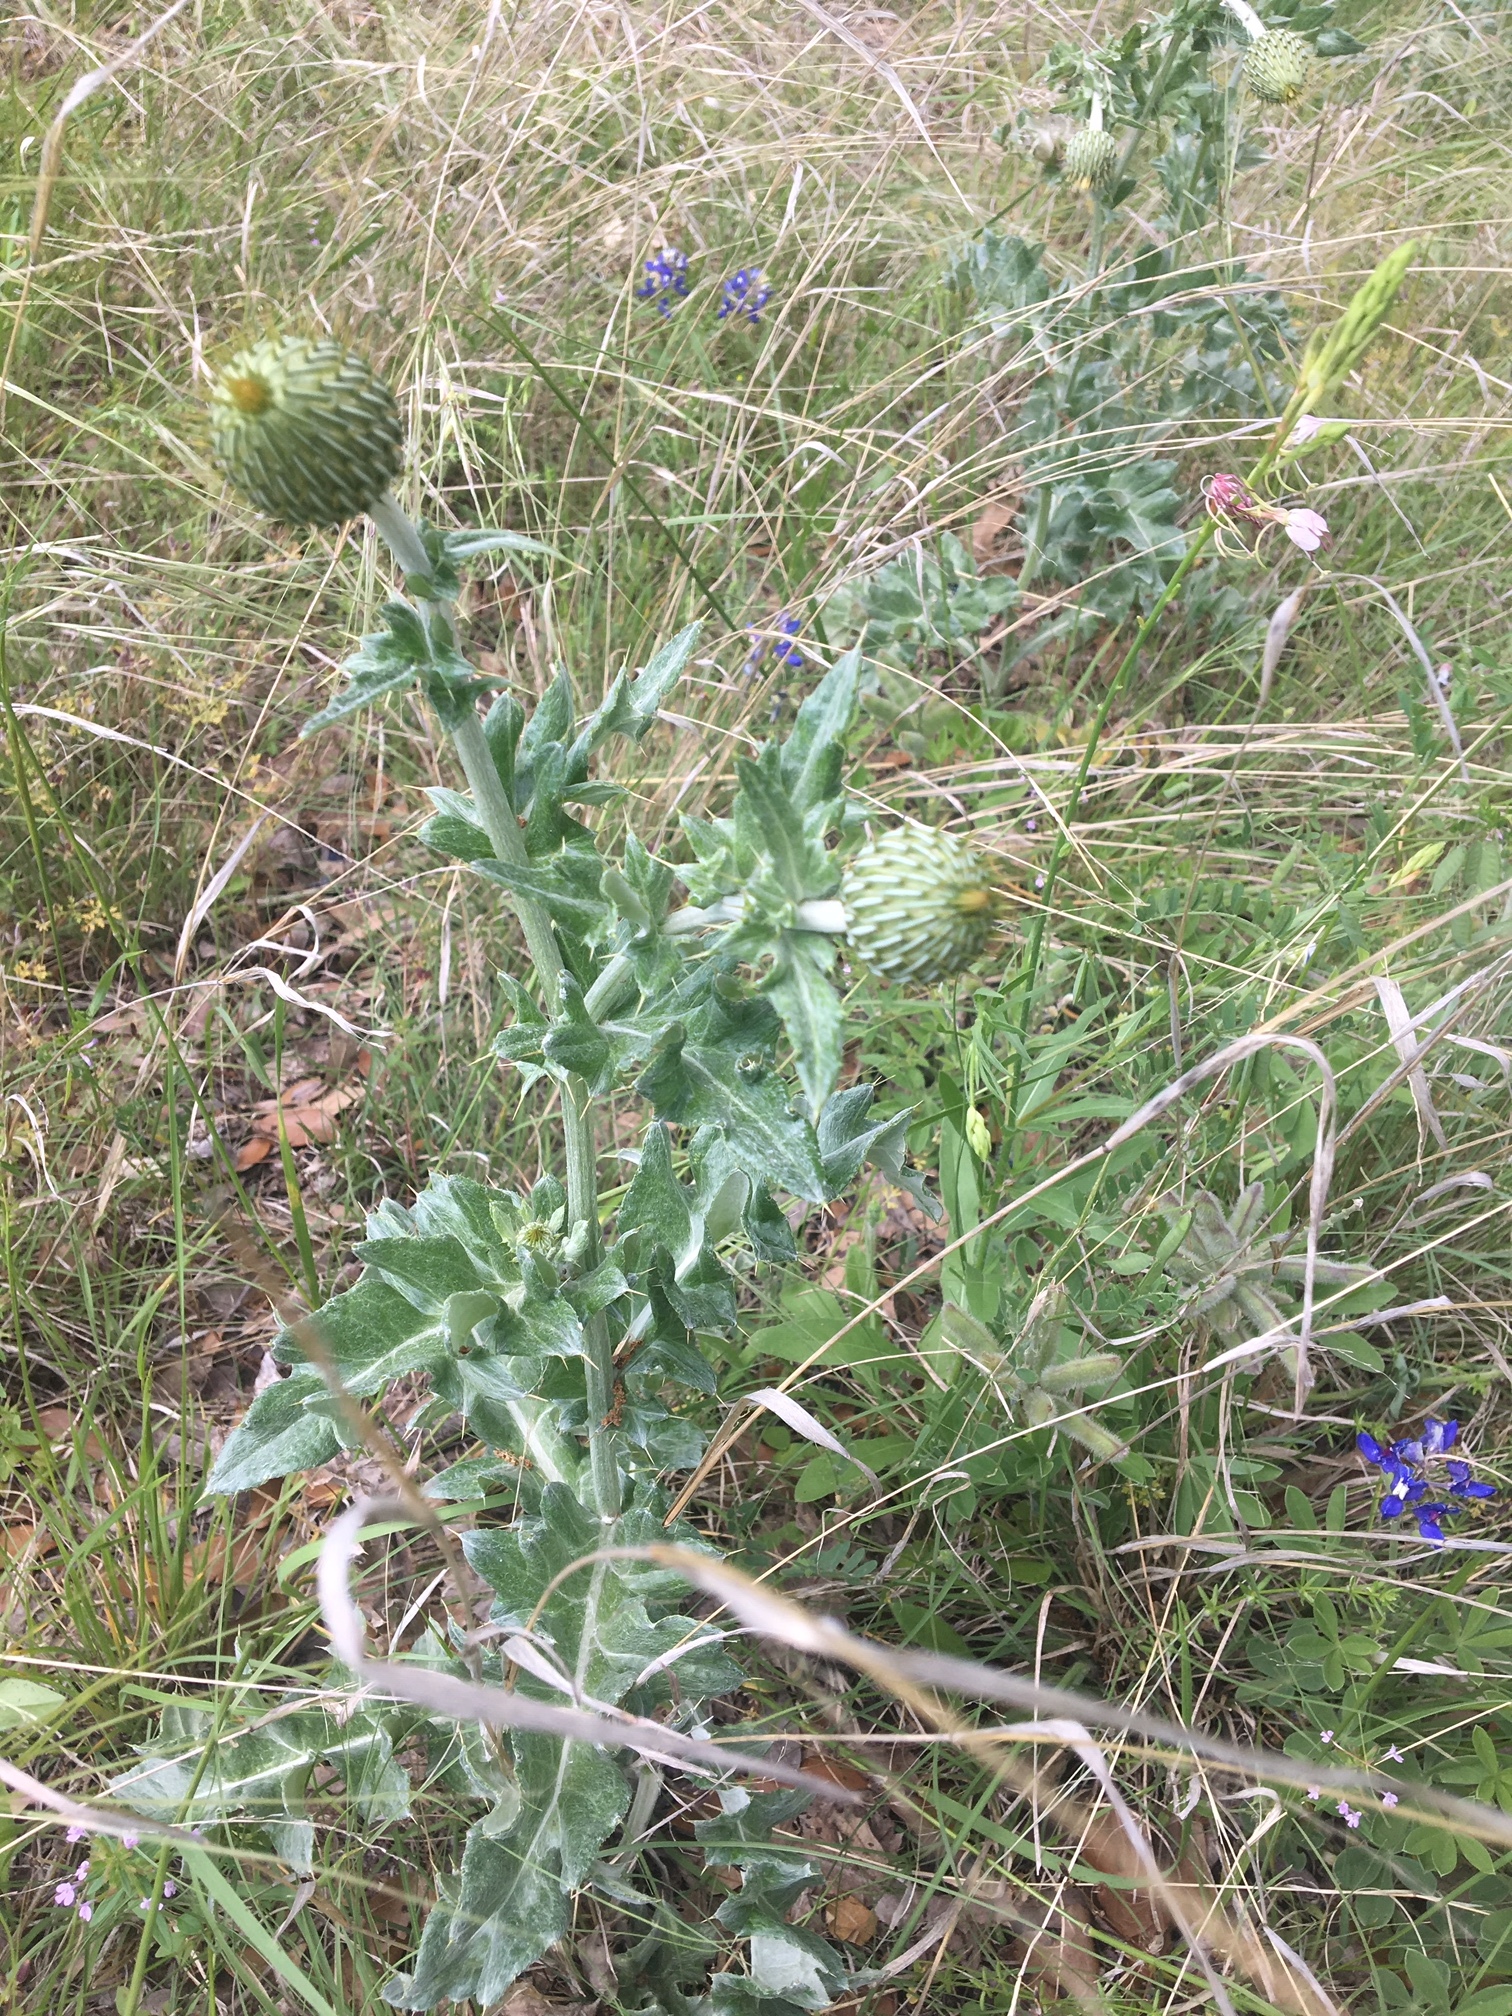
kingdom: Plantae
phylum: Tracheophyta
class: Magnoliopsida
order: Asterales
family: Asteraceae
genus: Cirsium
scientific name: Cirsium undulatum
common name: Pasture thistle
